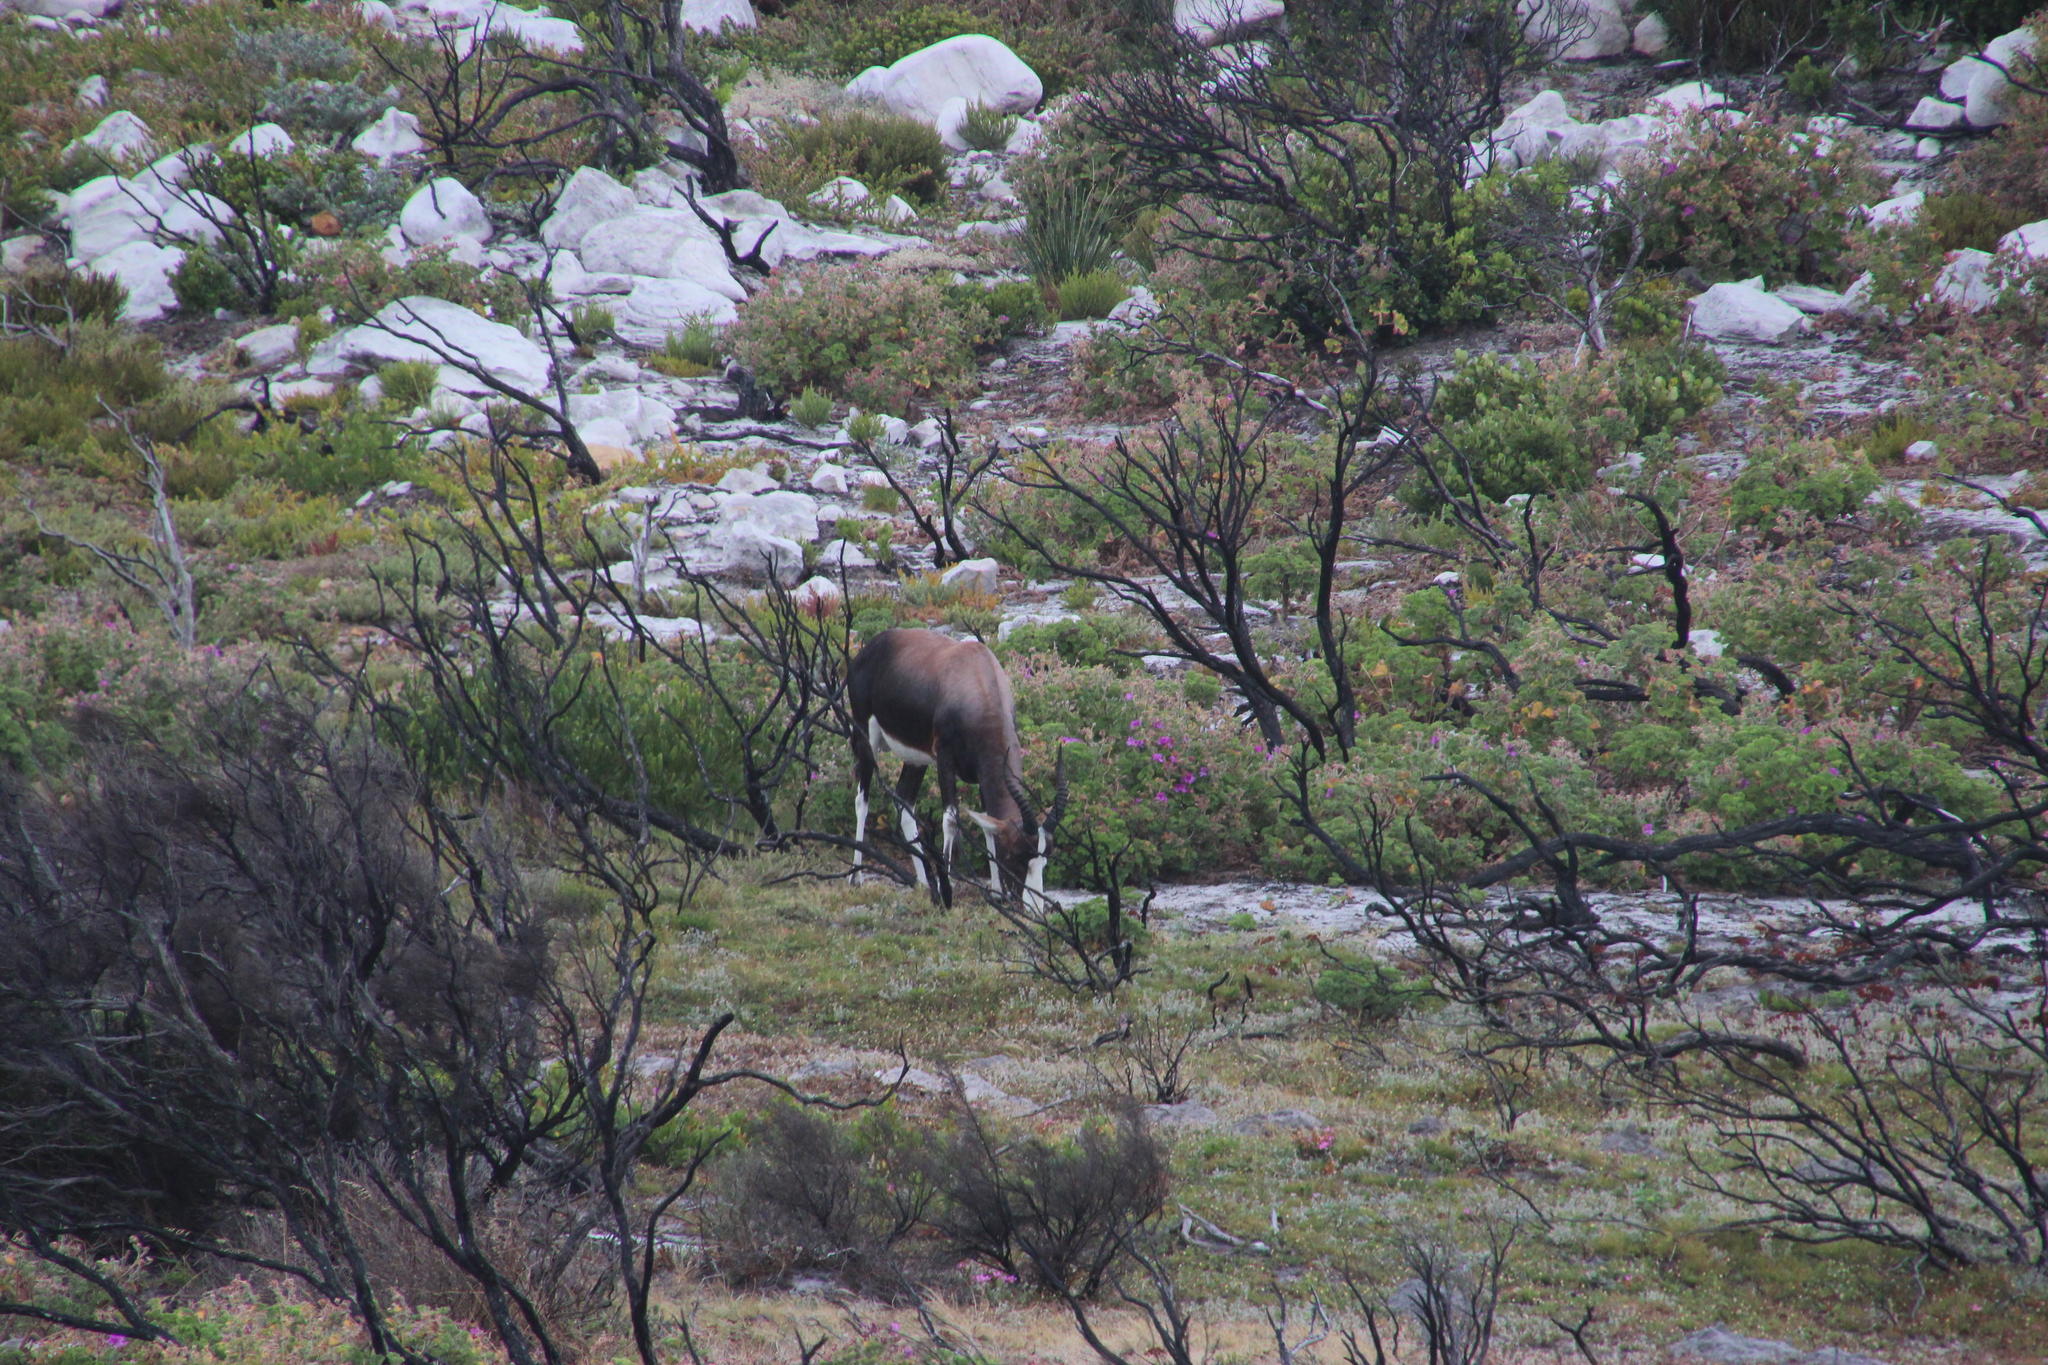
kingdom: Animalia
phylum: Chordata
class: Mammalia
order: Artiodactyla
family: Bovidae
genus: Damaliscus
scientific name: Damaliscus pygargus
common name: Bontebok
